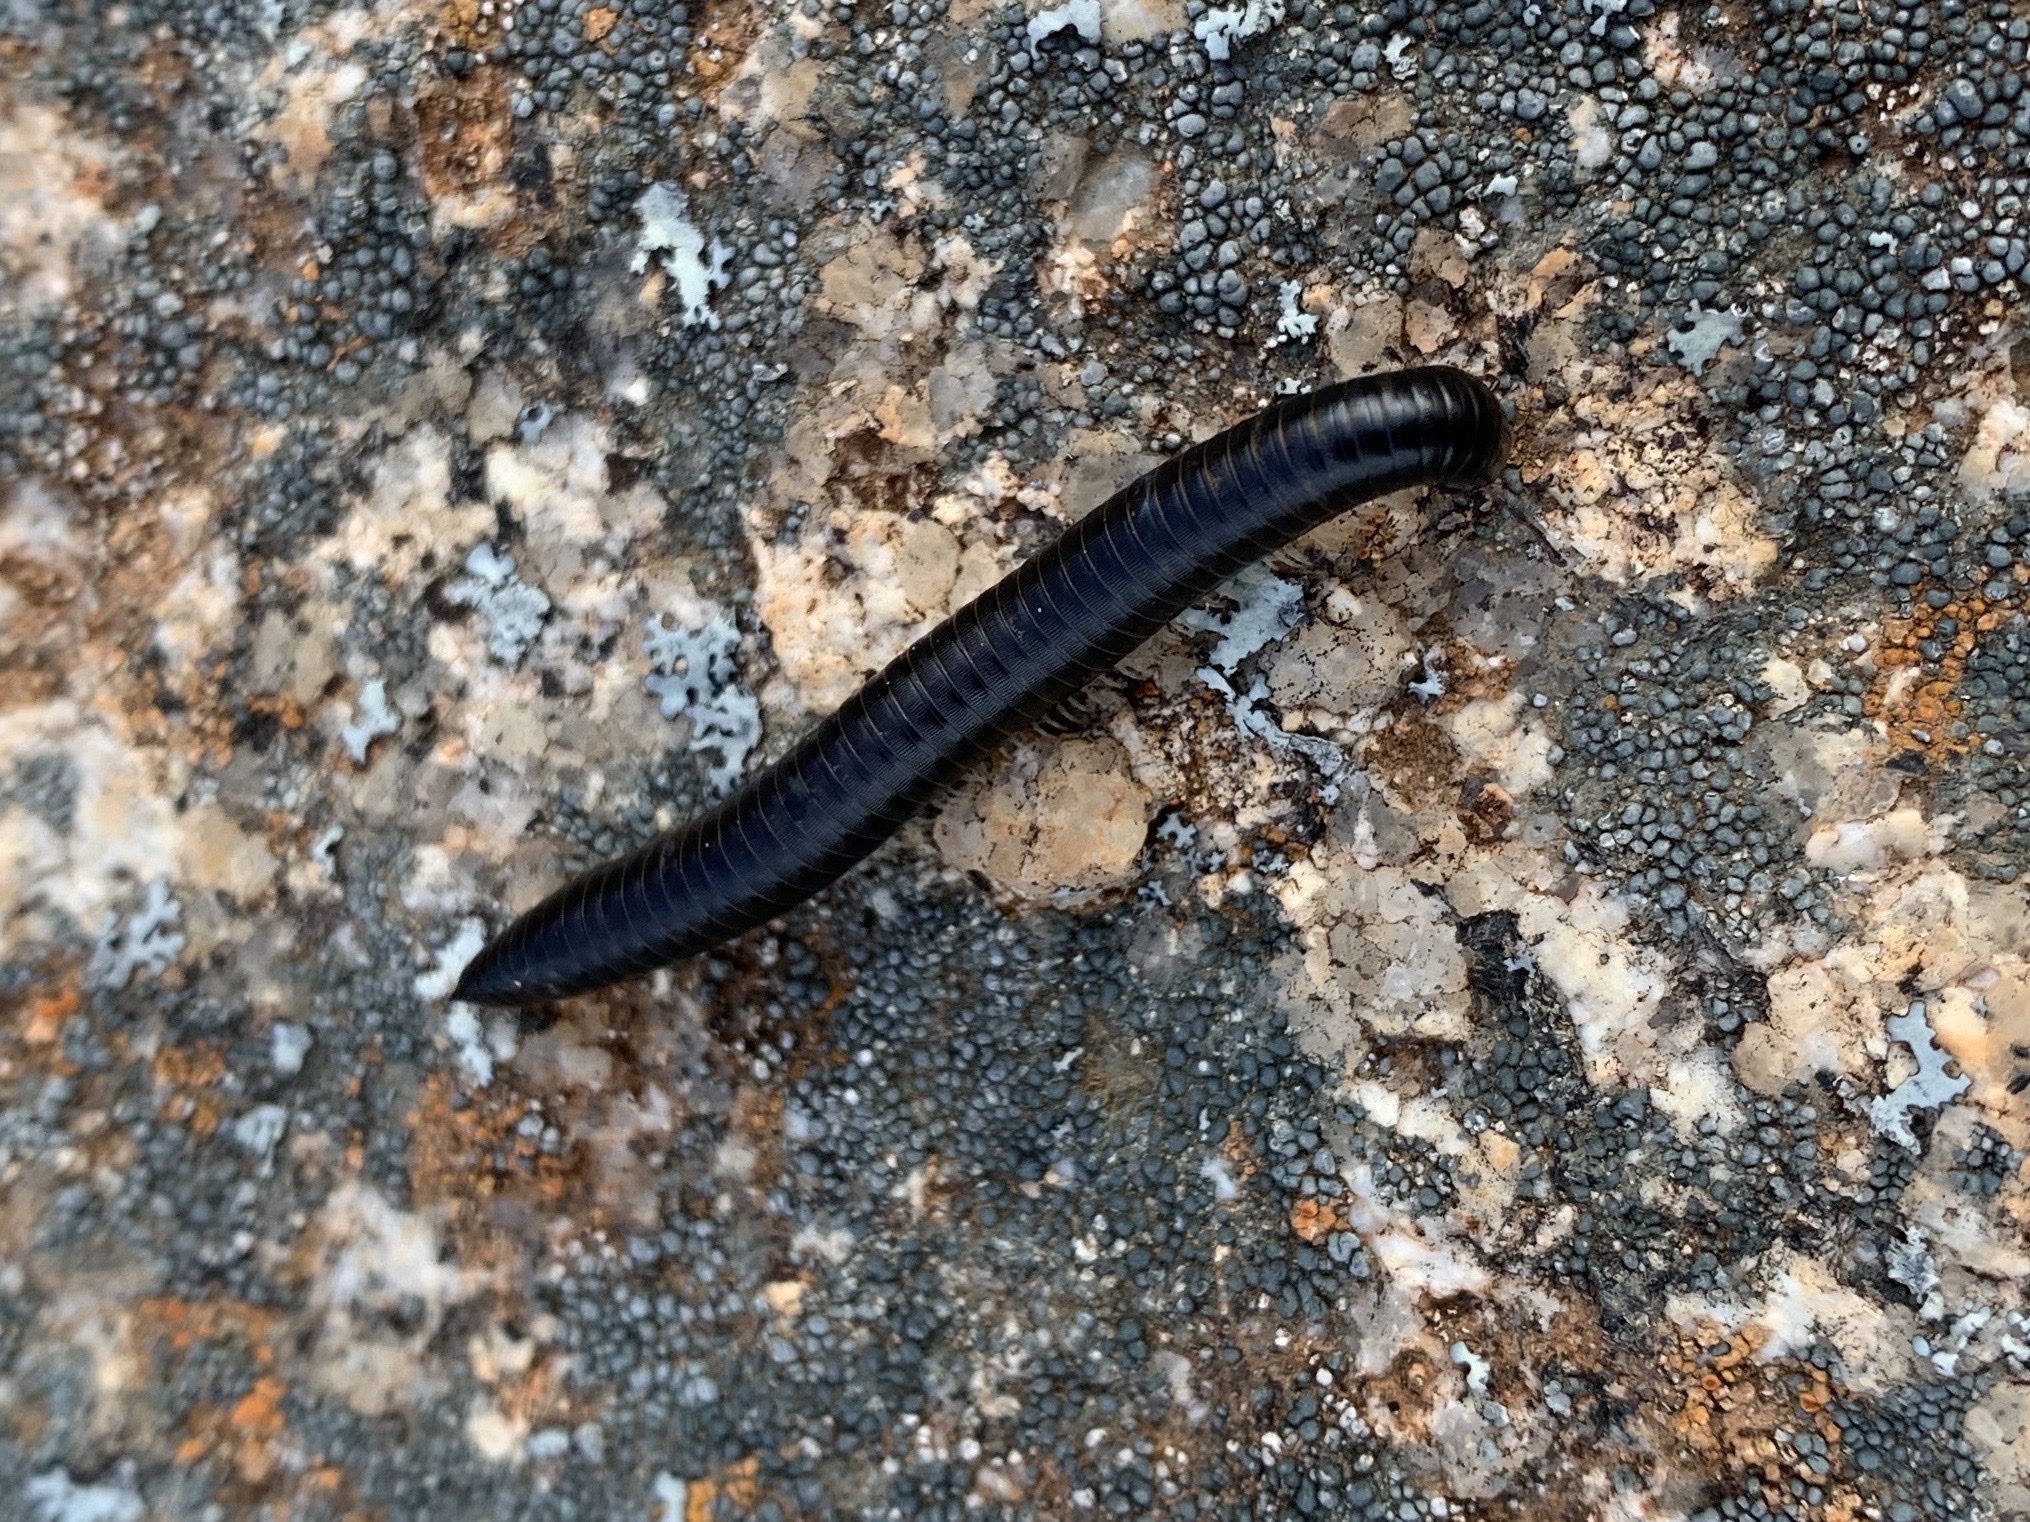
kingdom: Animalia
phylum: Arthropoda
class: Diplopoda
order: Julida
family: Julidae
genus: Ommatoiulus
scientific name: Ommatoiulus moreleti
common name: Portuguese millipede
